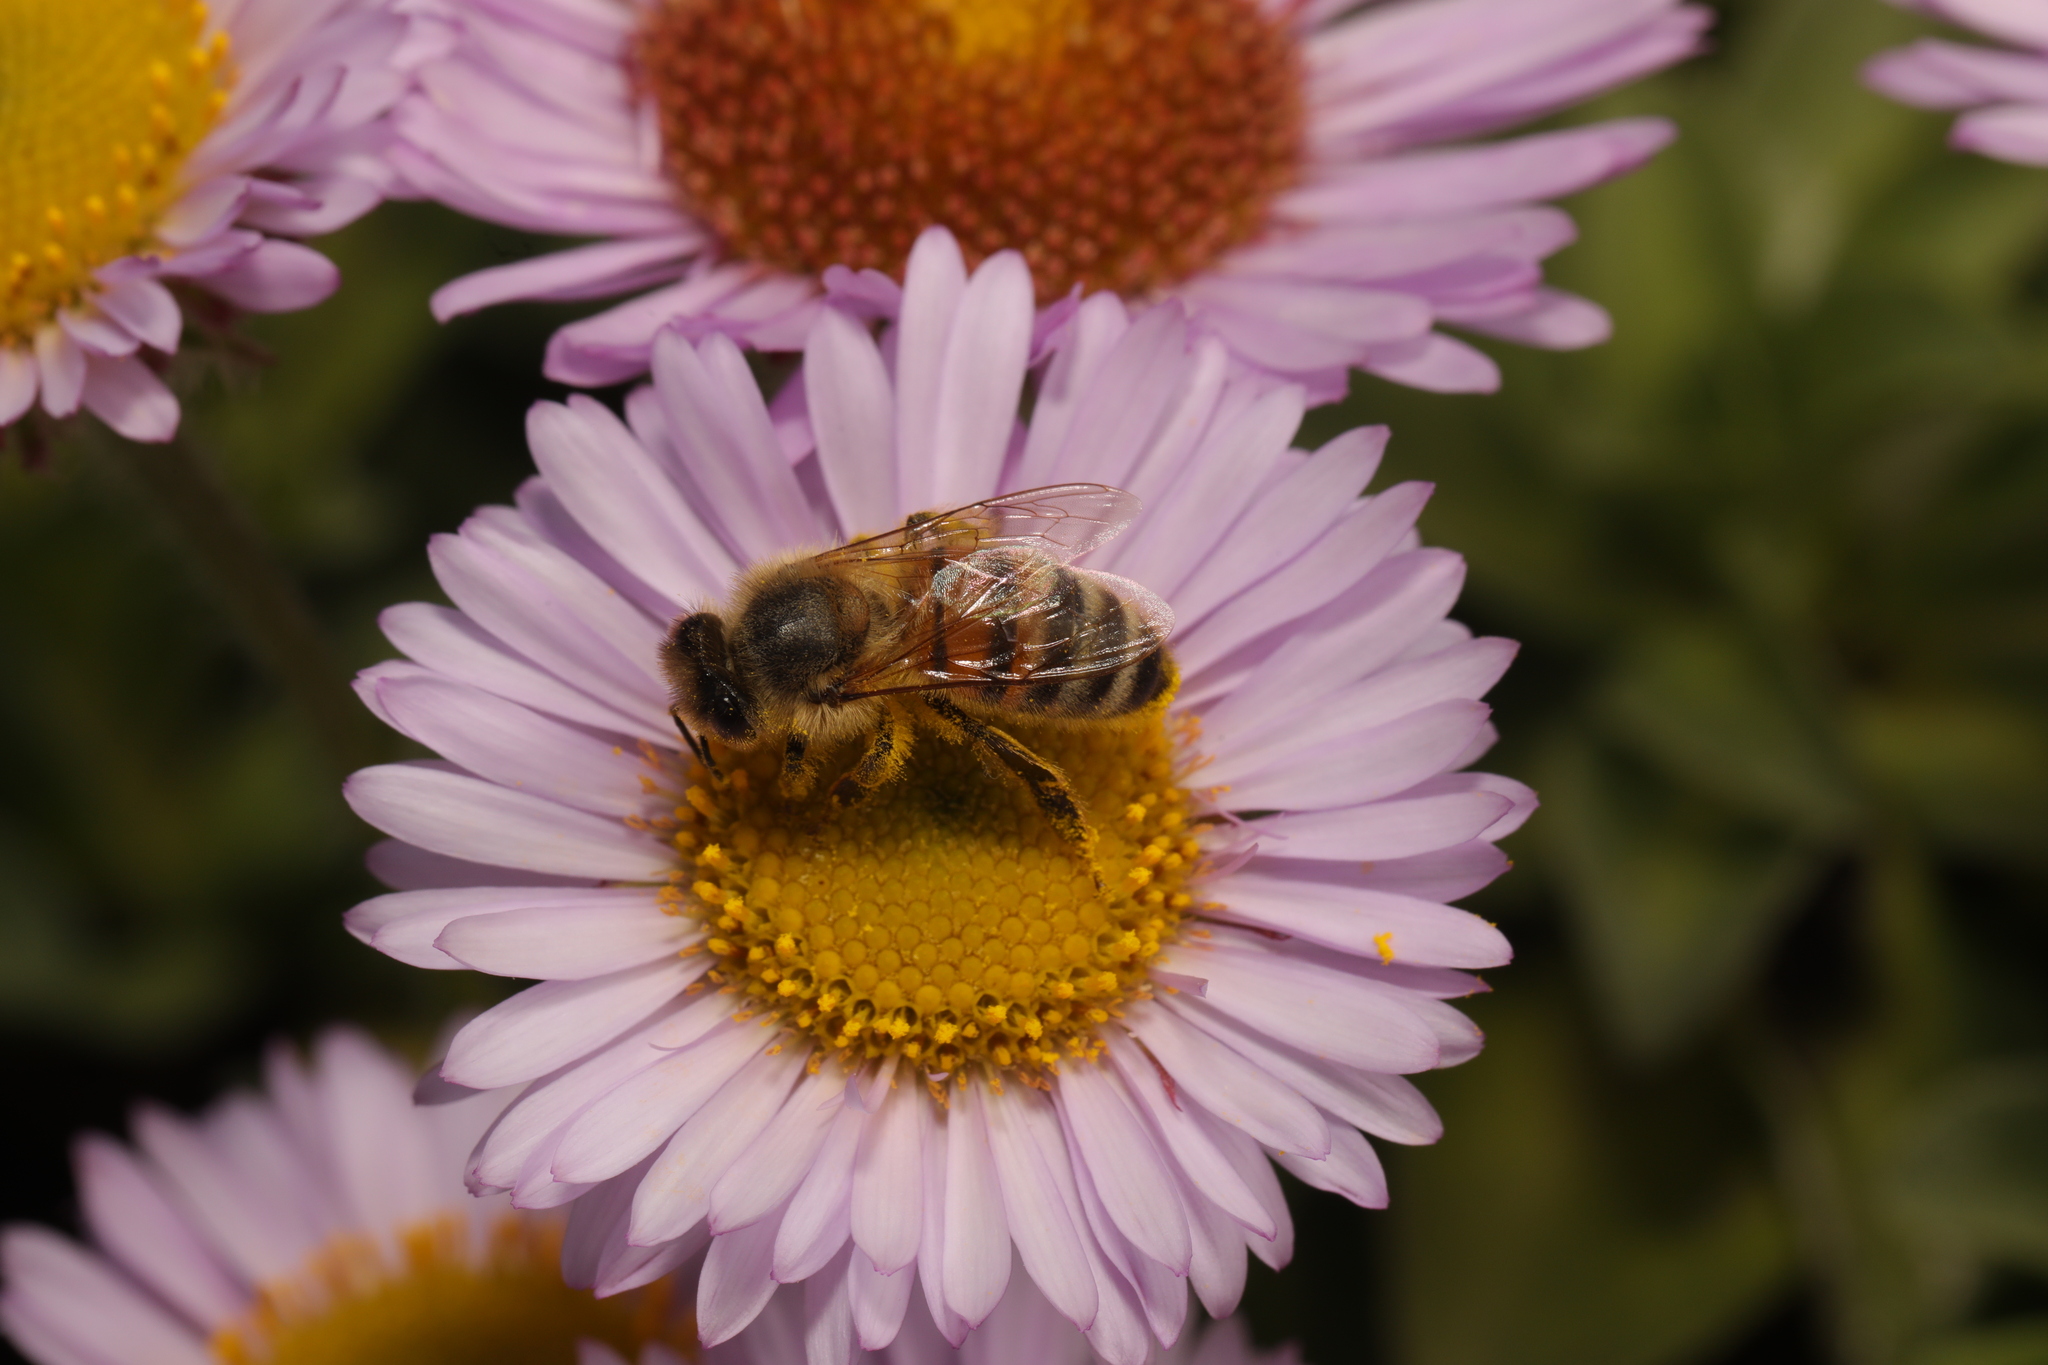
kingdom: Animalia
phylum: Arthropoda
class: Insecta
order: Hymenoptera
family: Apidae
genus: Apis
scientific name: Apis mellifera
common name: Honey bee
